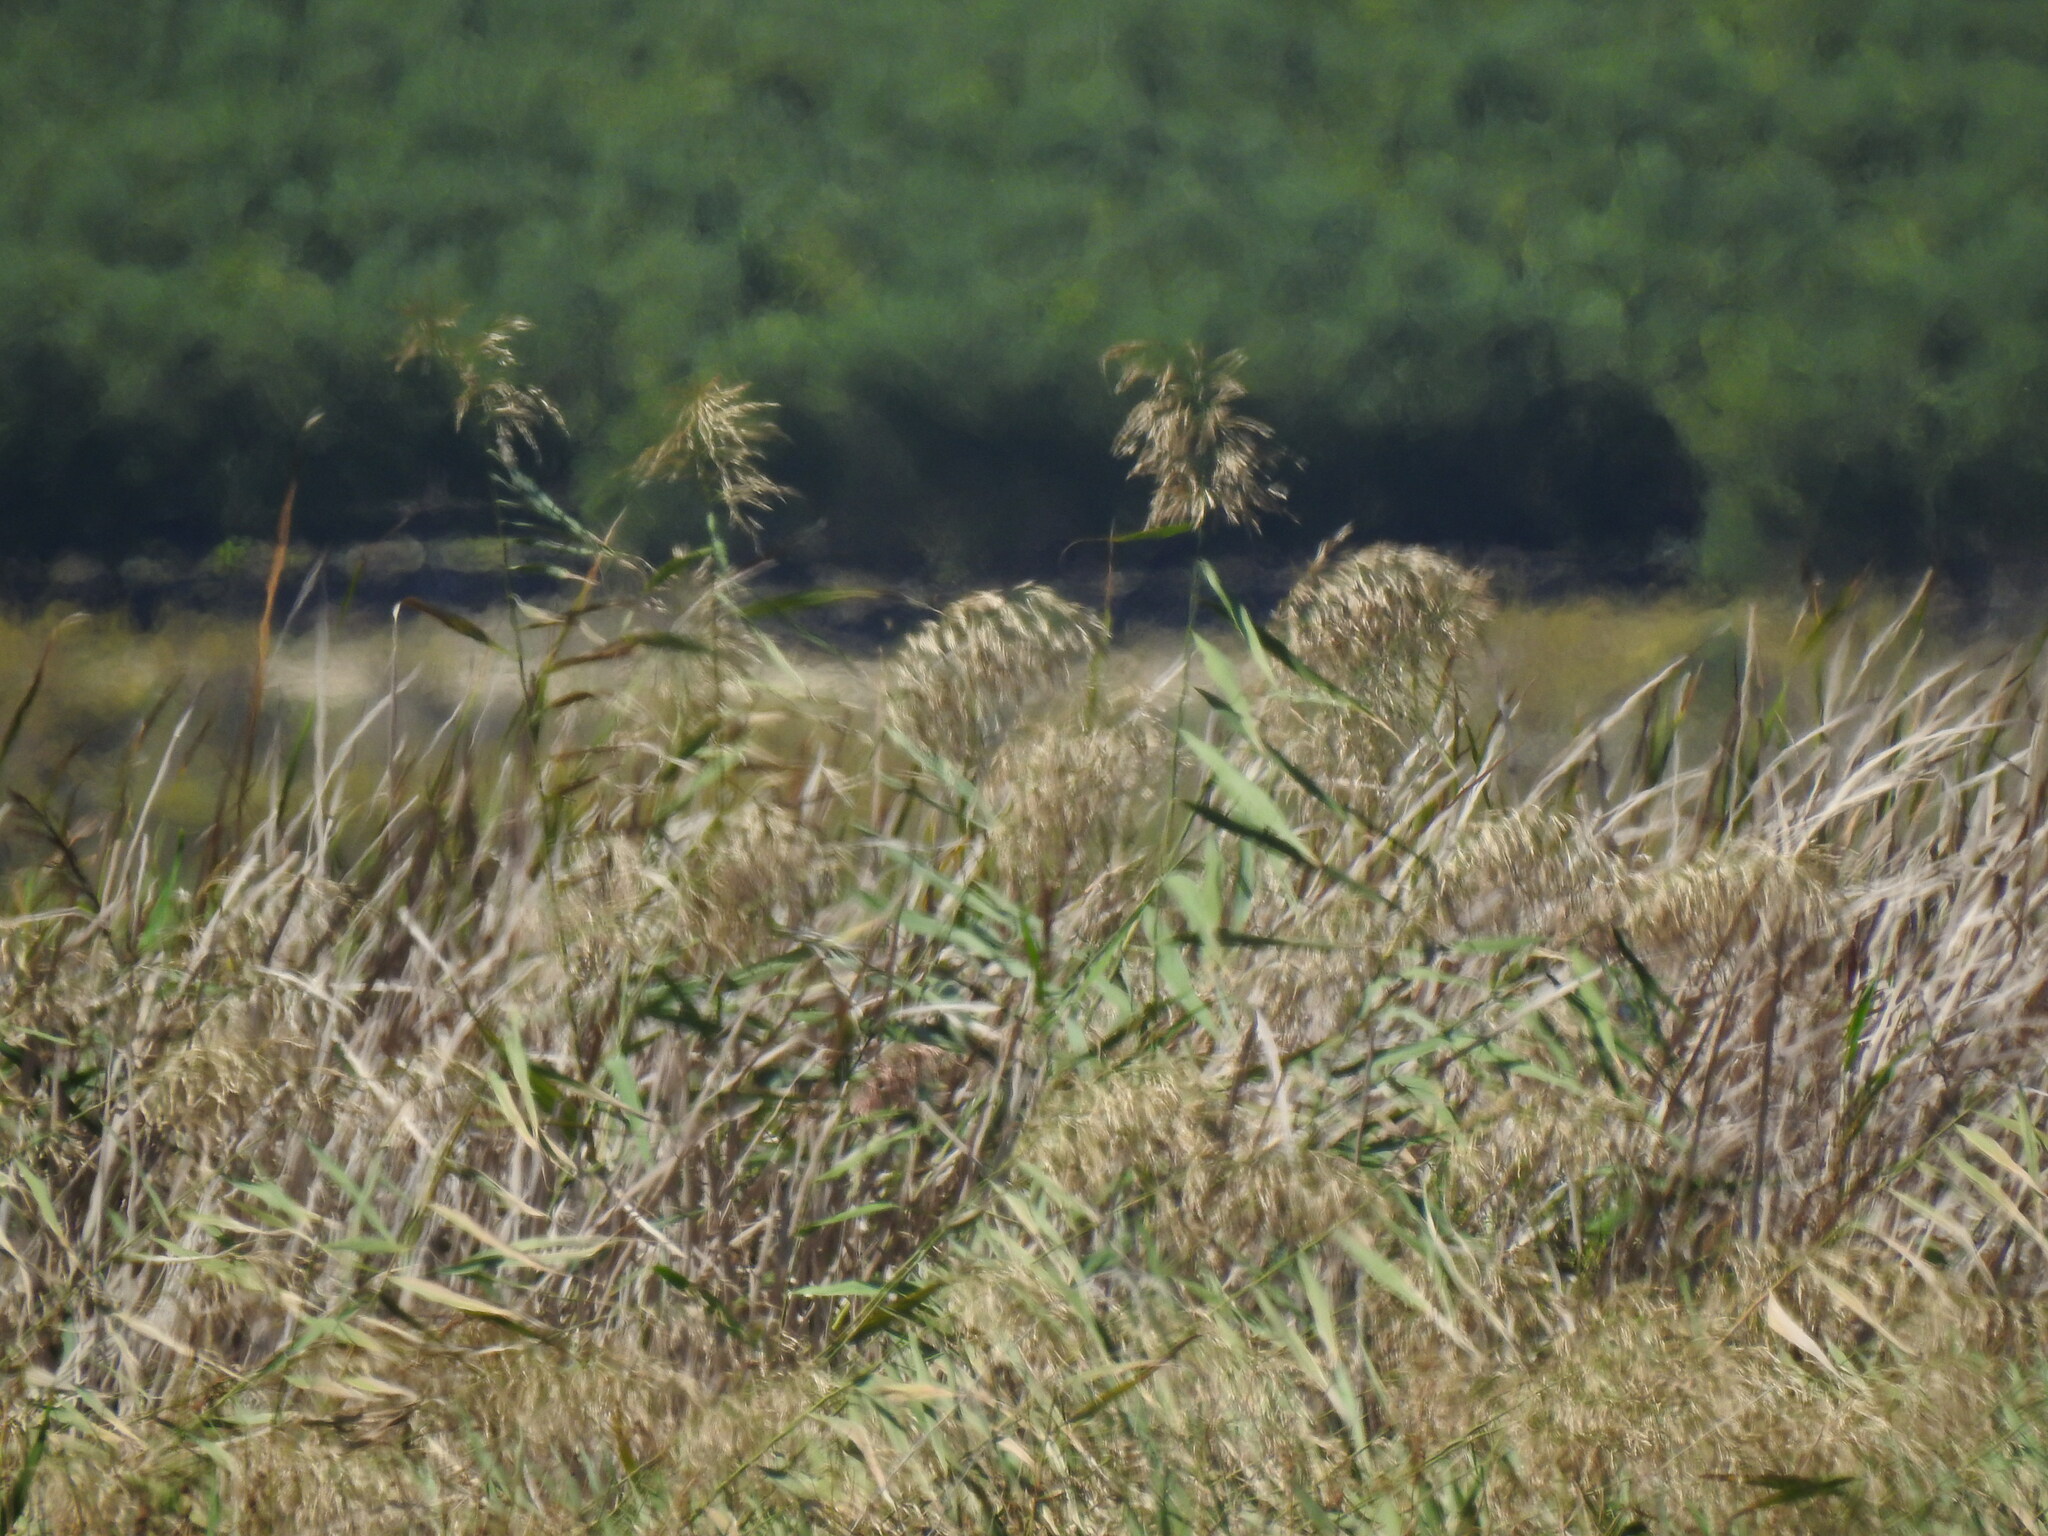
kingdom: Plantae
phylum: Tracheophyta
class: Liliopsida
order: Poales
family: Poaceae
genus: Phragmites
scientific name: Phragmites australis
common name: Common reed
